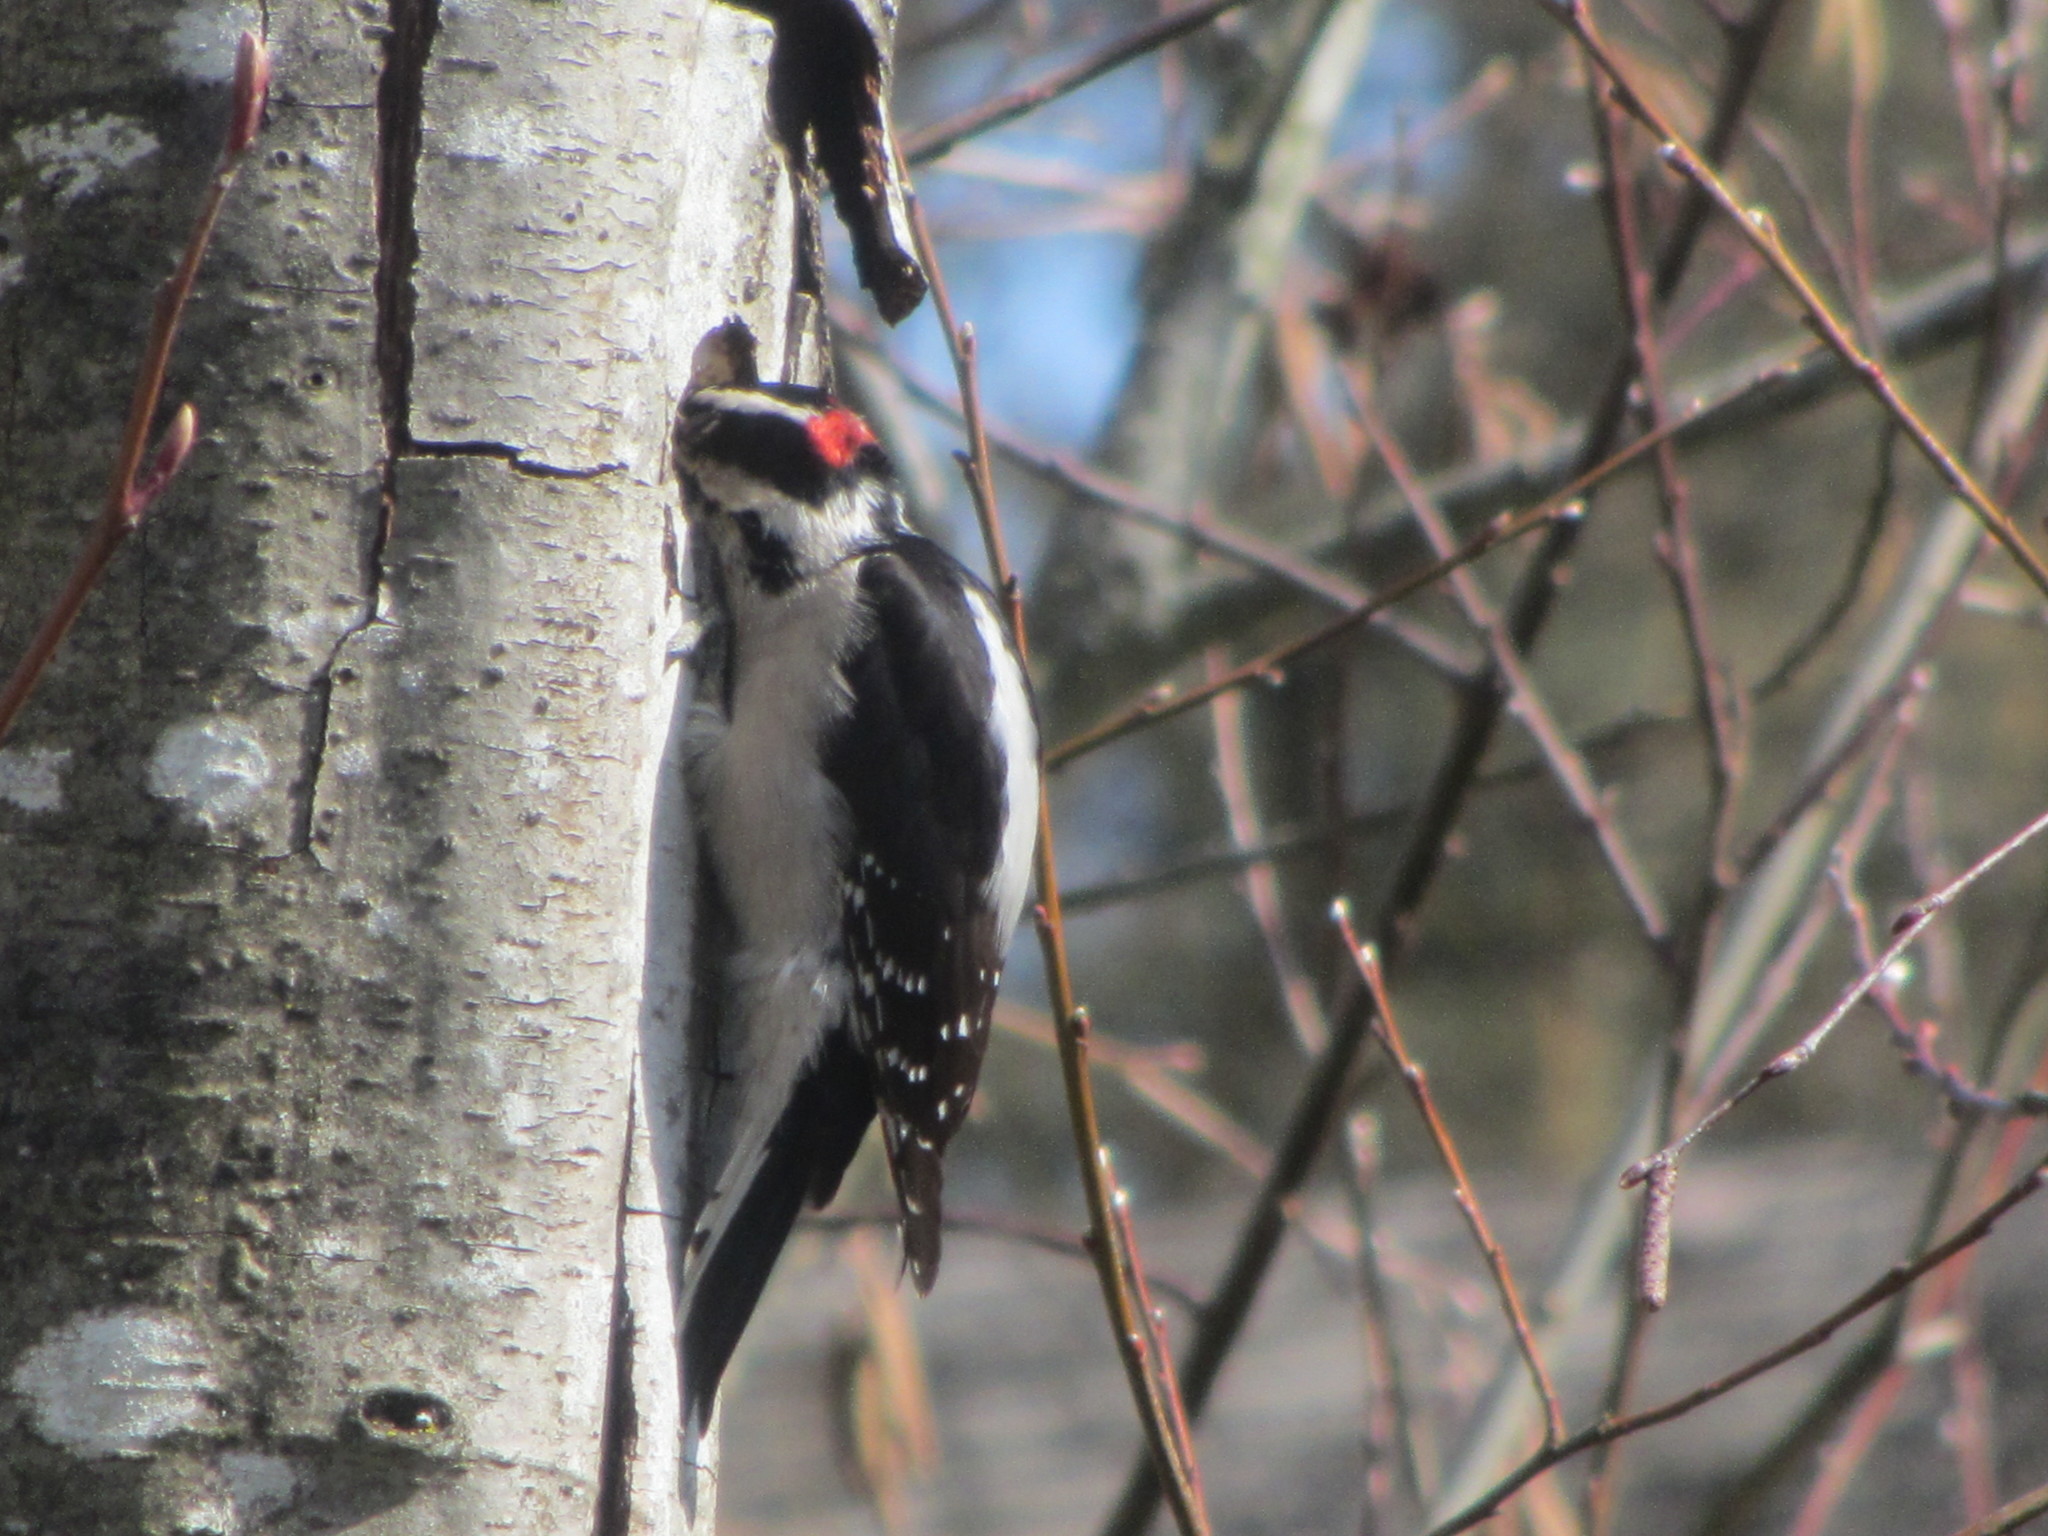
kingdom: Animalia
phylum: Chordata
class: Aves
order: Piciformes
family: Picidae
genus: Dryobates
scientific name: Dryobates pubescens
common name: Downy woodpecker
